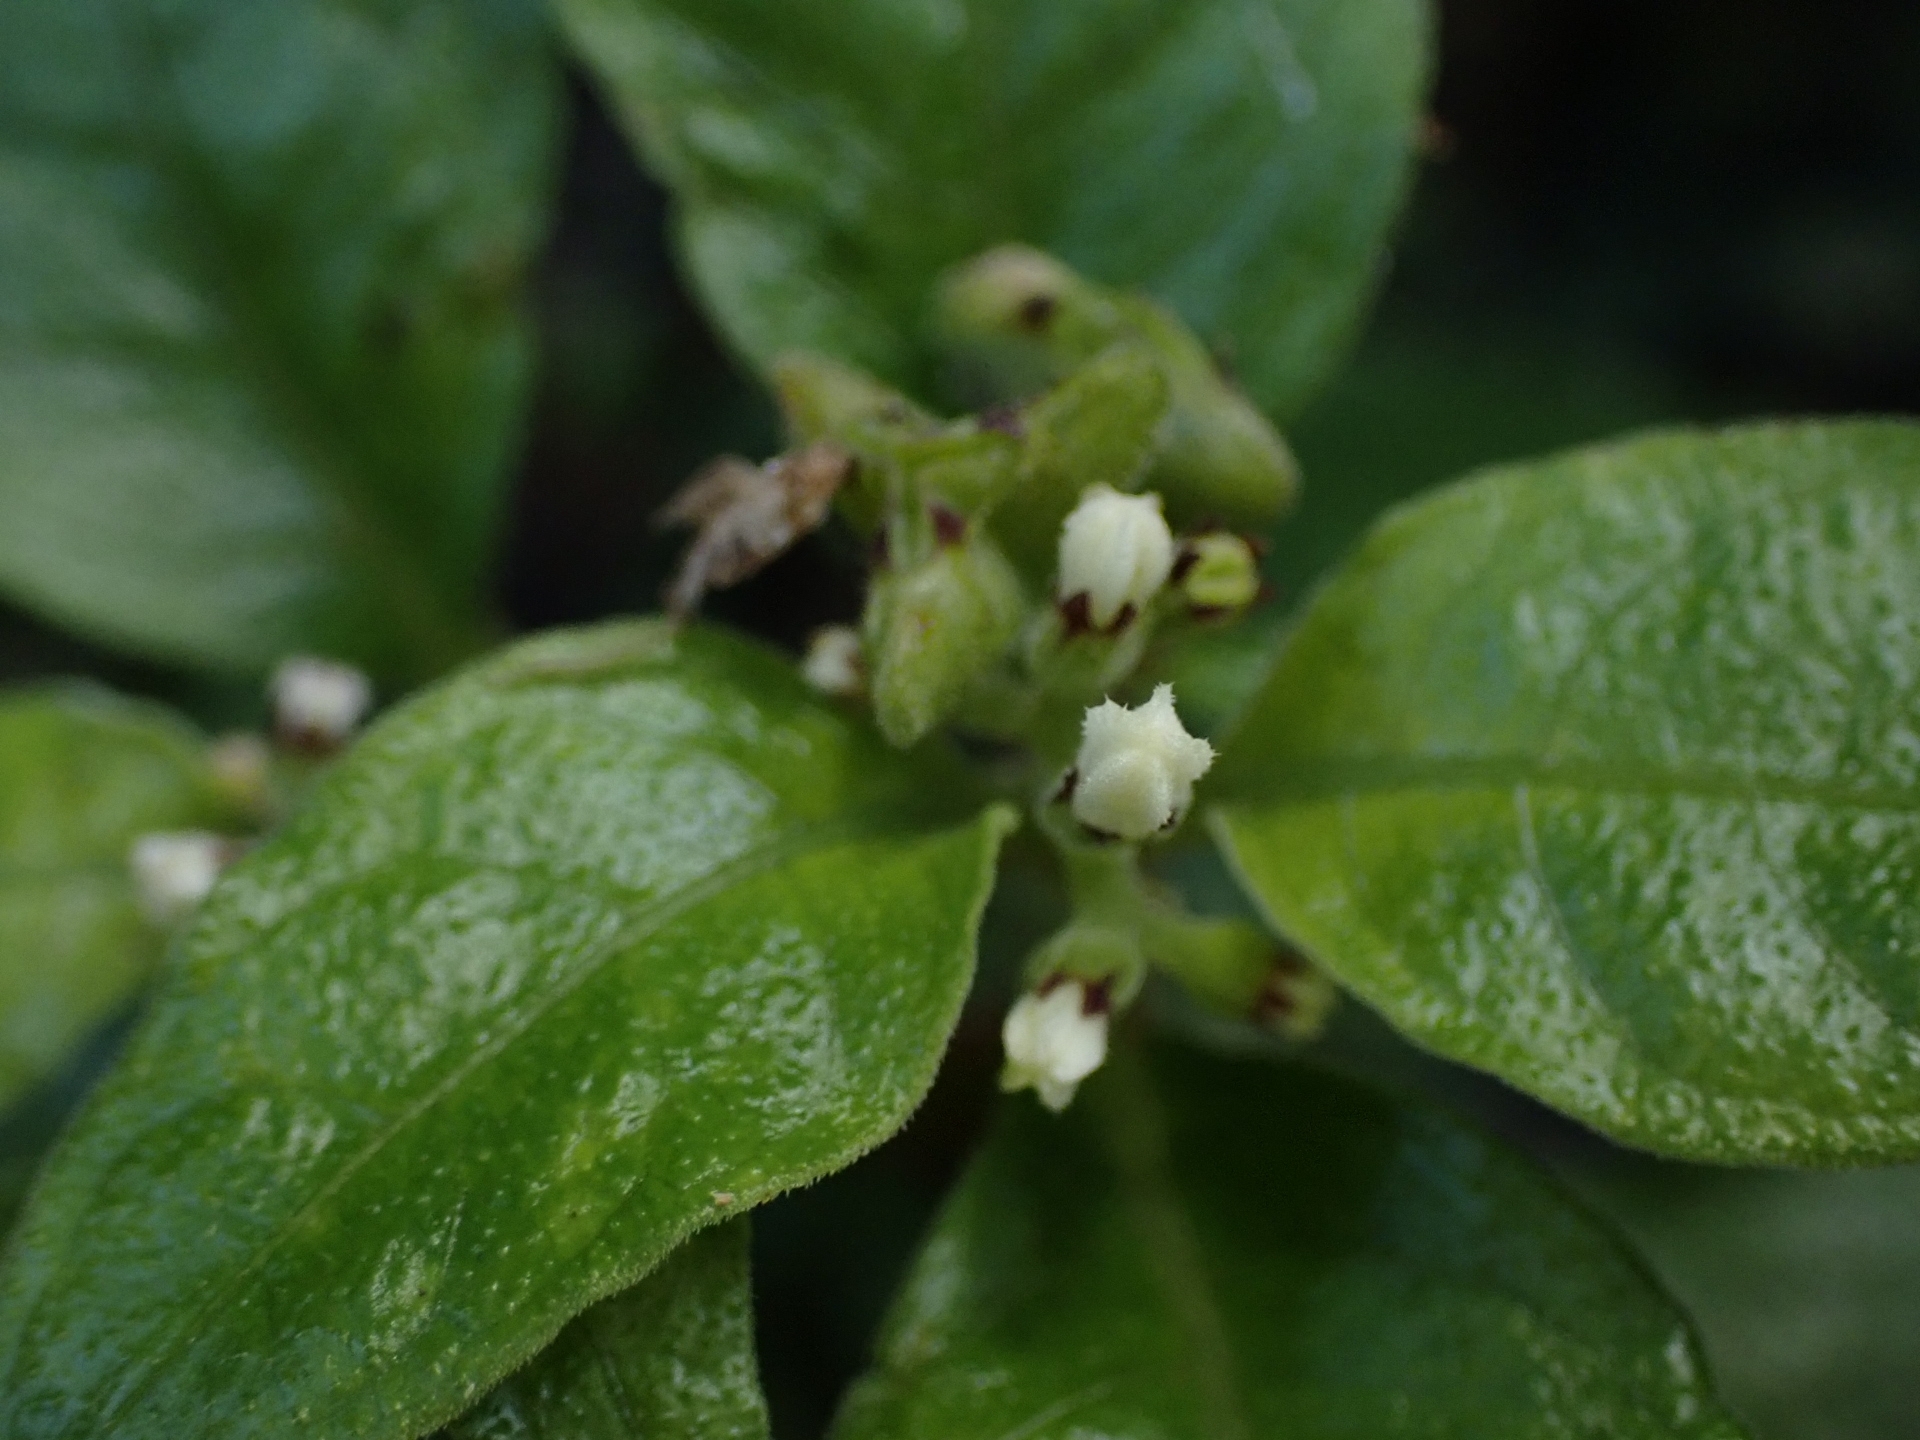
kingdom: Plantae
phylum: Tracheophyta
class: Magnoliopsida
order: Gentianales
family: Rubiaceae
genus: Ophiorrhiza
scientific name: Ophiorrhiza pumila
